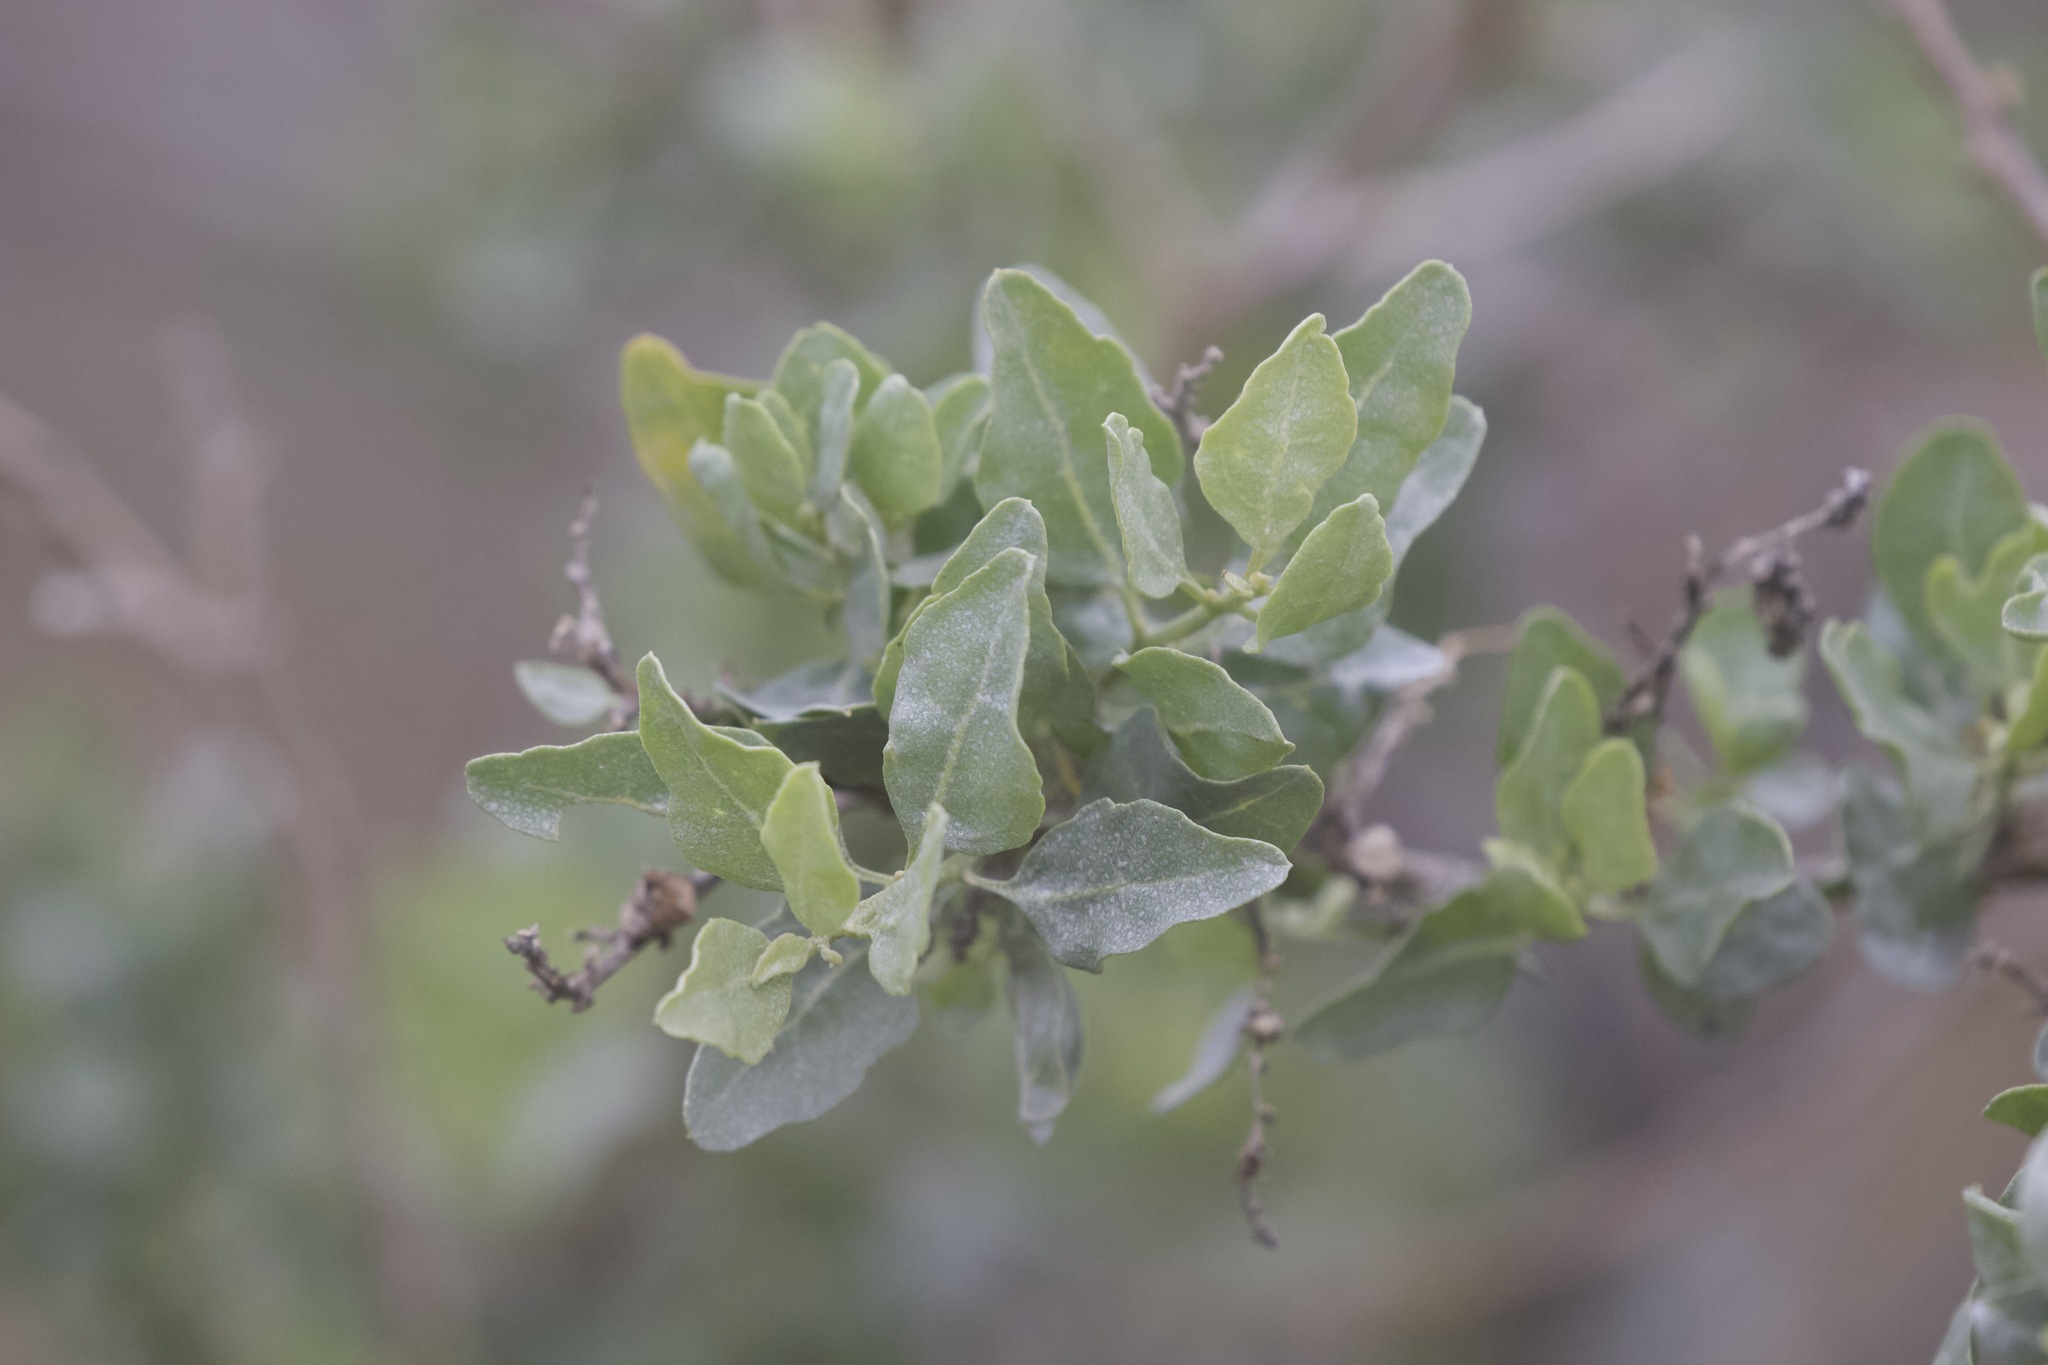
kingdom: Plantae
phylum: Tracheophyta
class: Magnoliopsida
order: Caryophyllales
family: Amaranthaceae
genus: Atriplex
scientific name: Atriplex lentiformis
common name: Big saltbush
